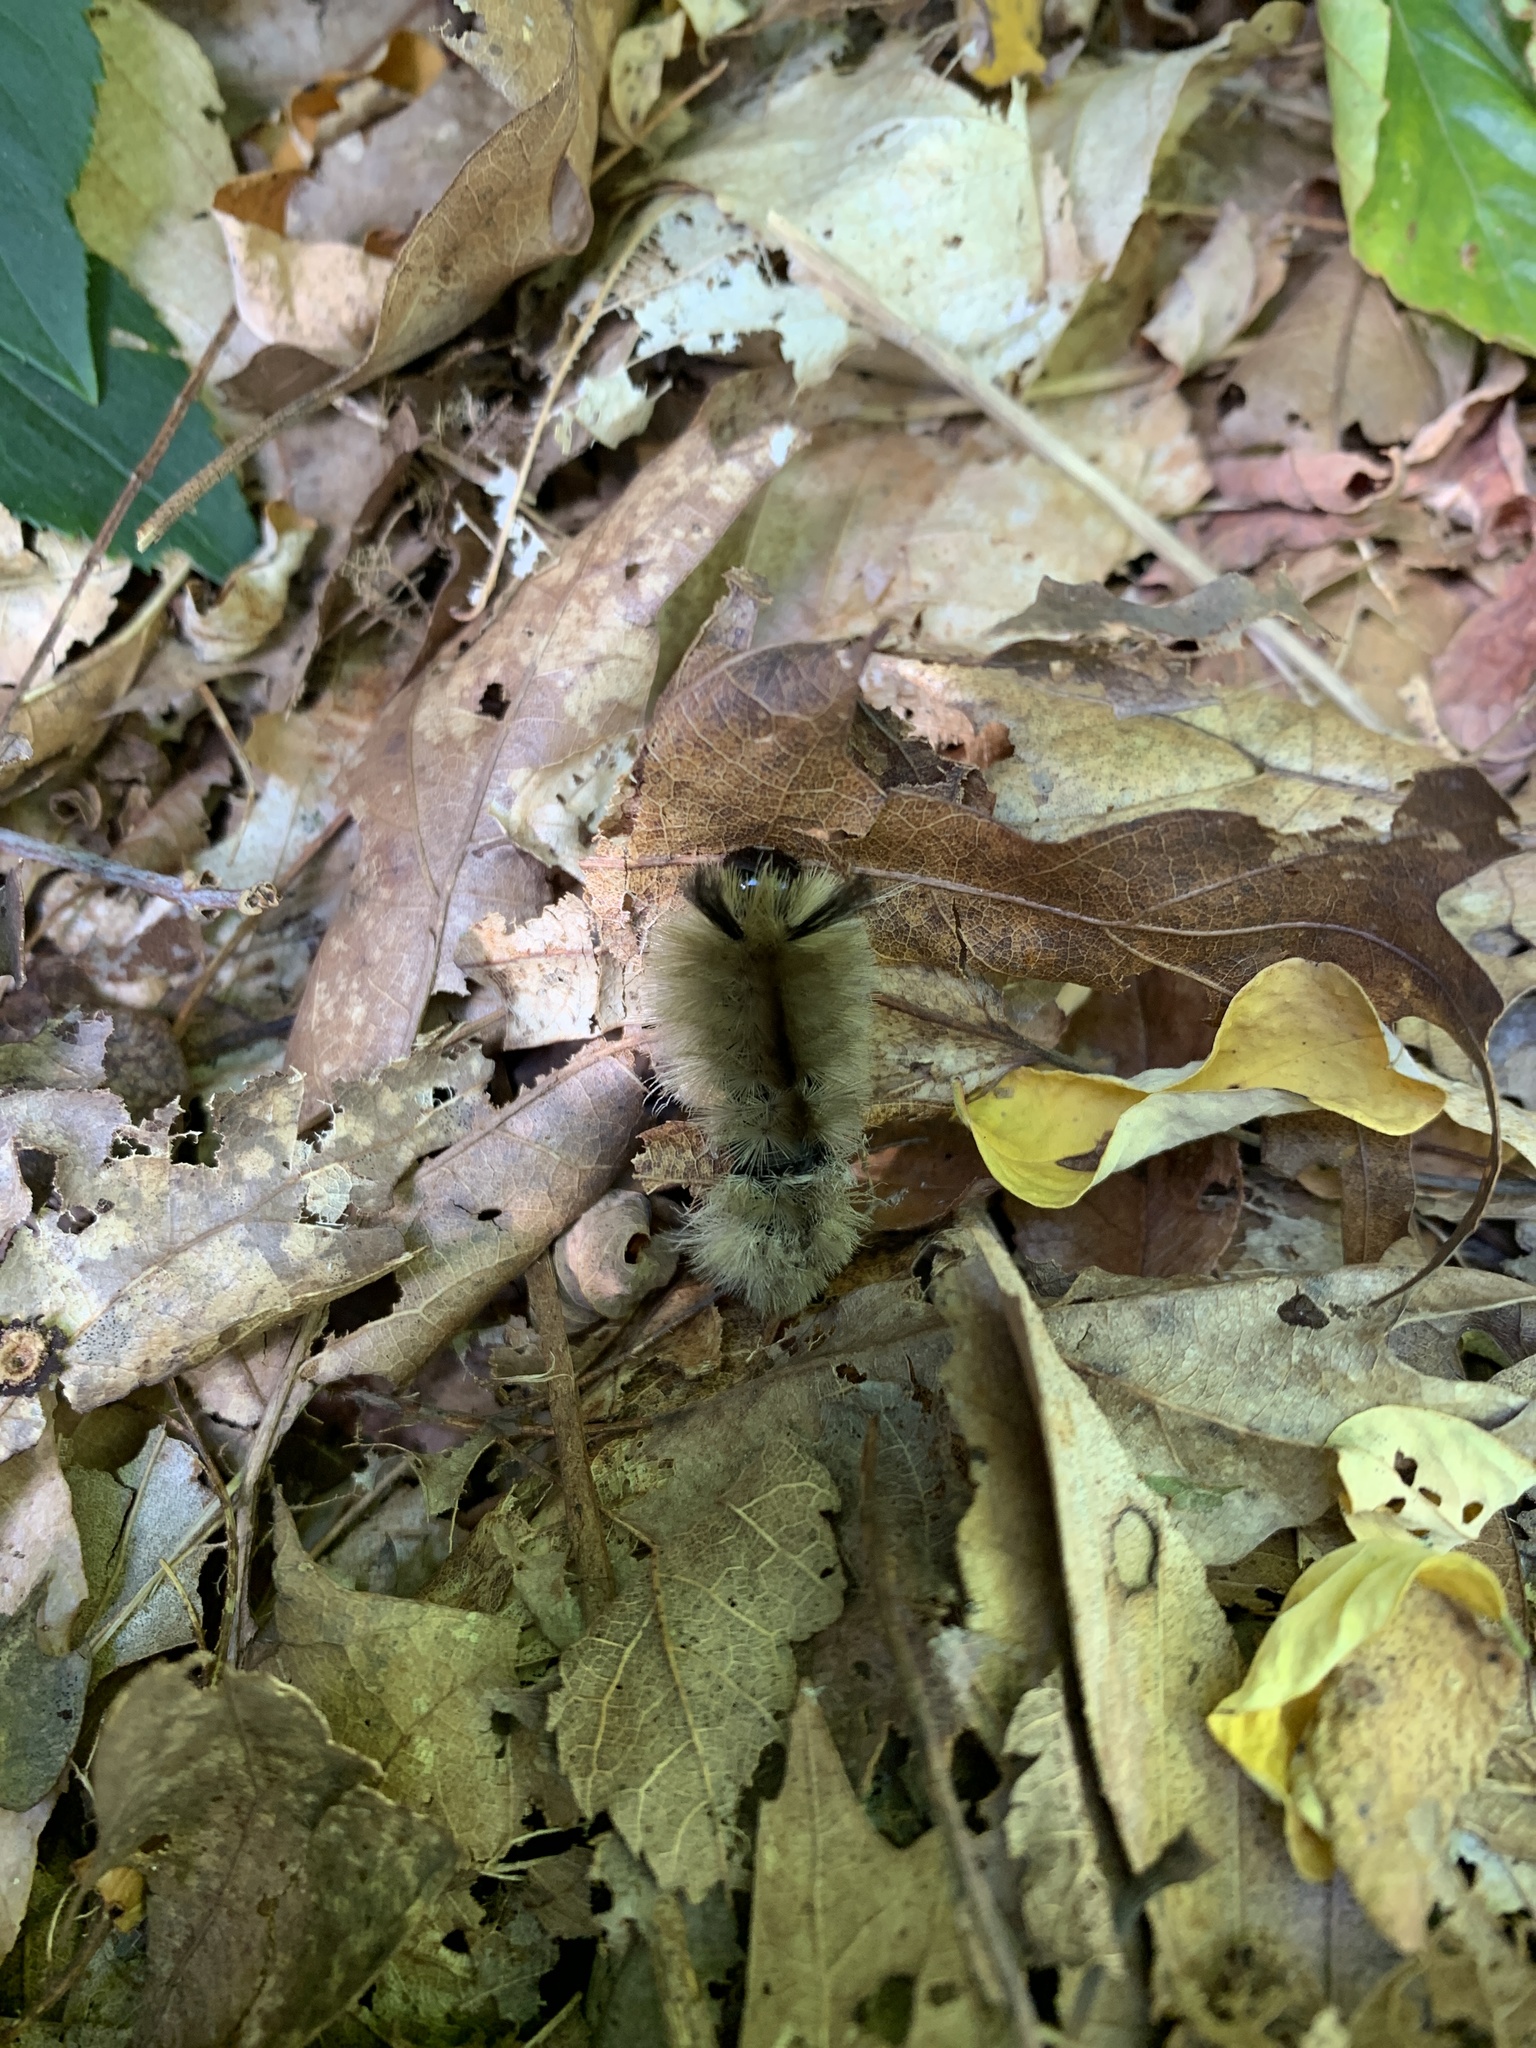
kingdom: Animalia
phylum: Arthropoda
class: Insecta
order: Lepidoptera
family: Erebidae
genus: Halysidota
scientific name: Halysidota tessellaris
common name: Banded tussock moth
